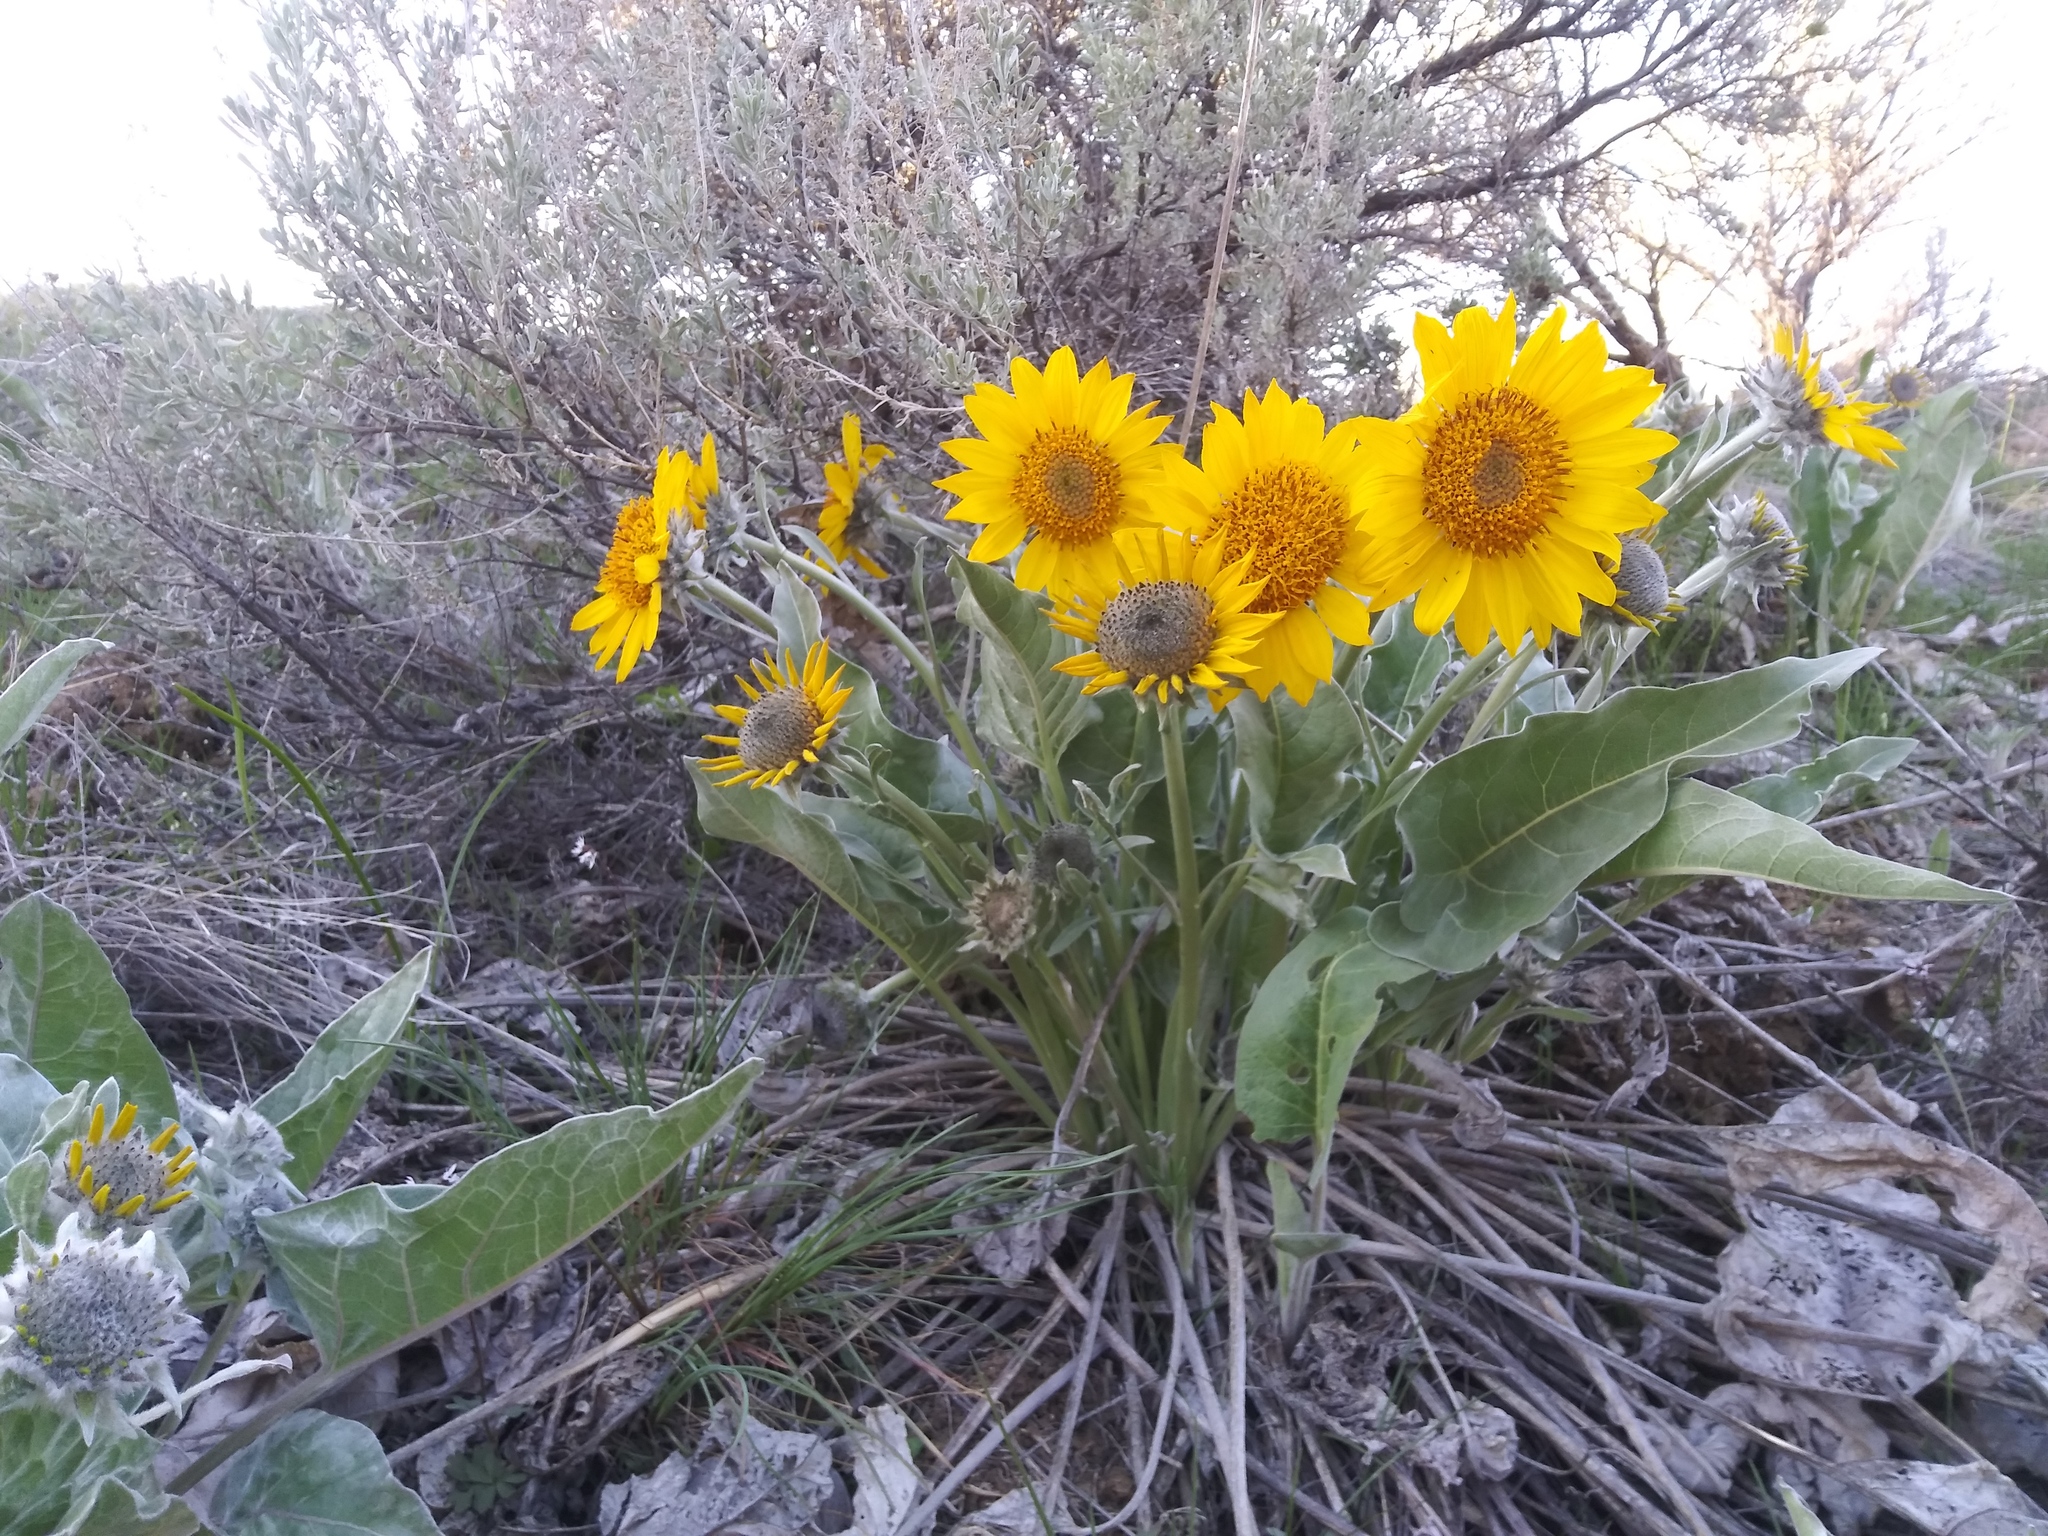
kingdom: Plantae
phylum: Tracheophyta
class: Magnoliopsida
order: Asterales
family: Asteraceae
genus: Wyethia
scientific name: Wyethia sagittata
